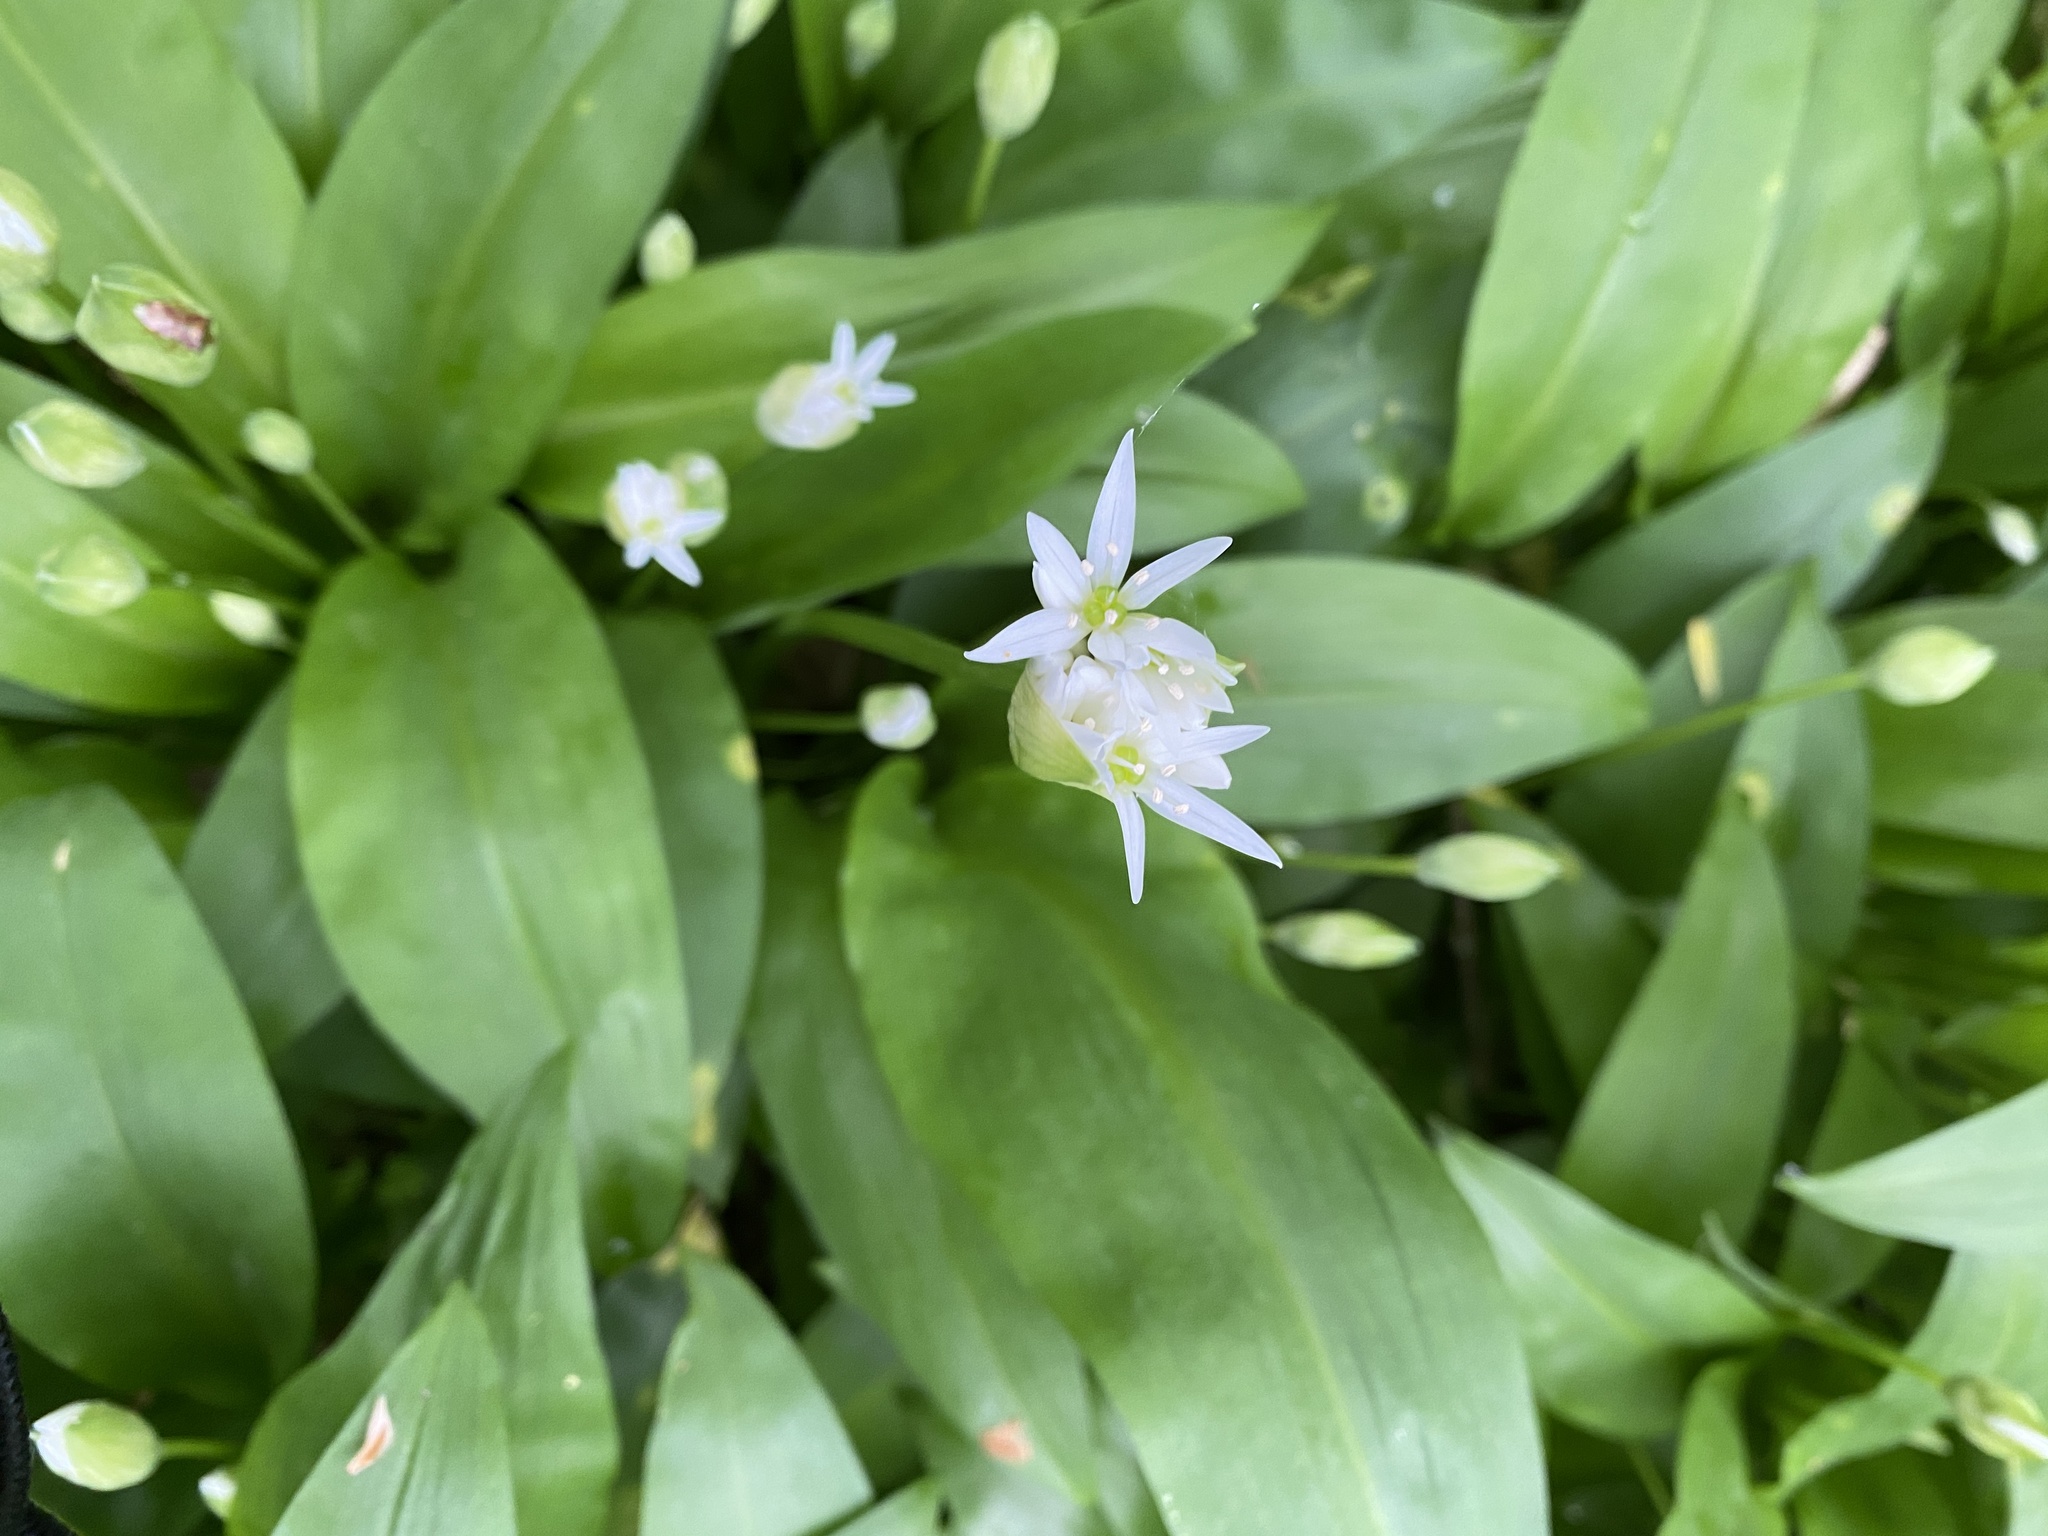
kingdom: Plantae
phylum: Tracheophyta
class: Liliopsida
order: Asparagales
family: Amaryllidaceae
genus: Allium
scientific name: Allium ursinum
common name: Ramsons
